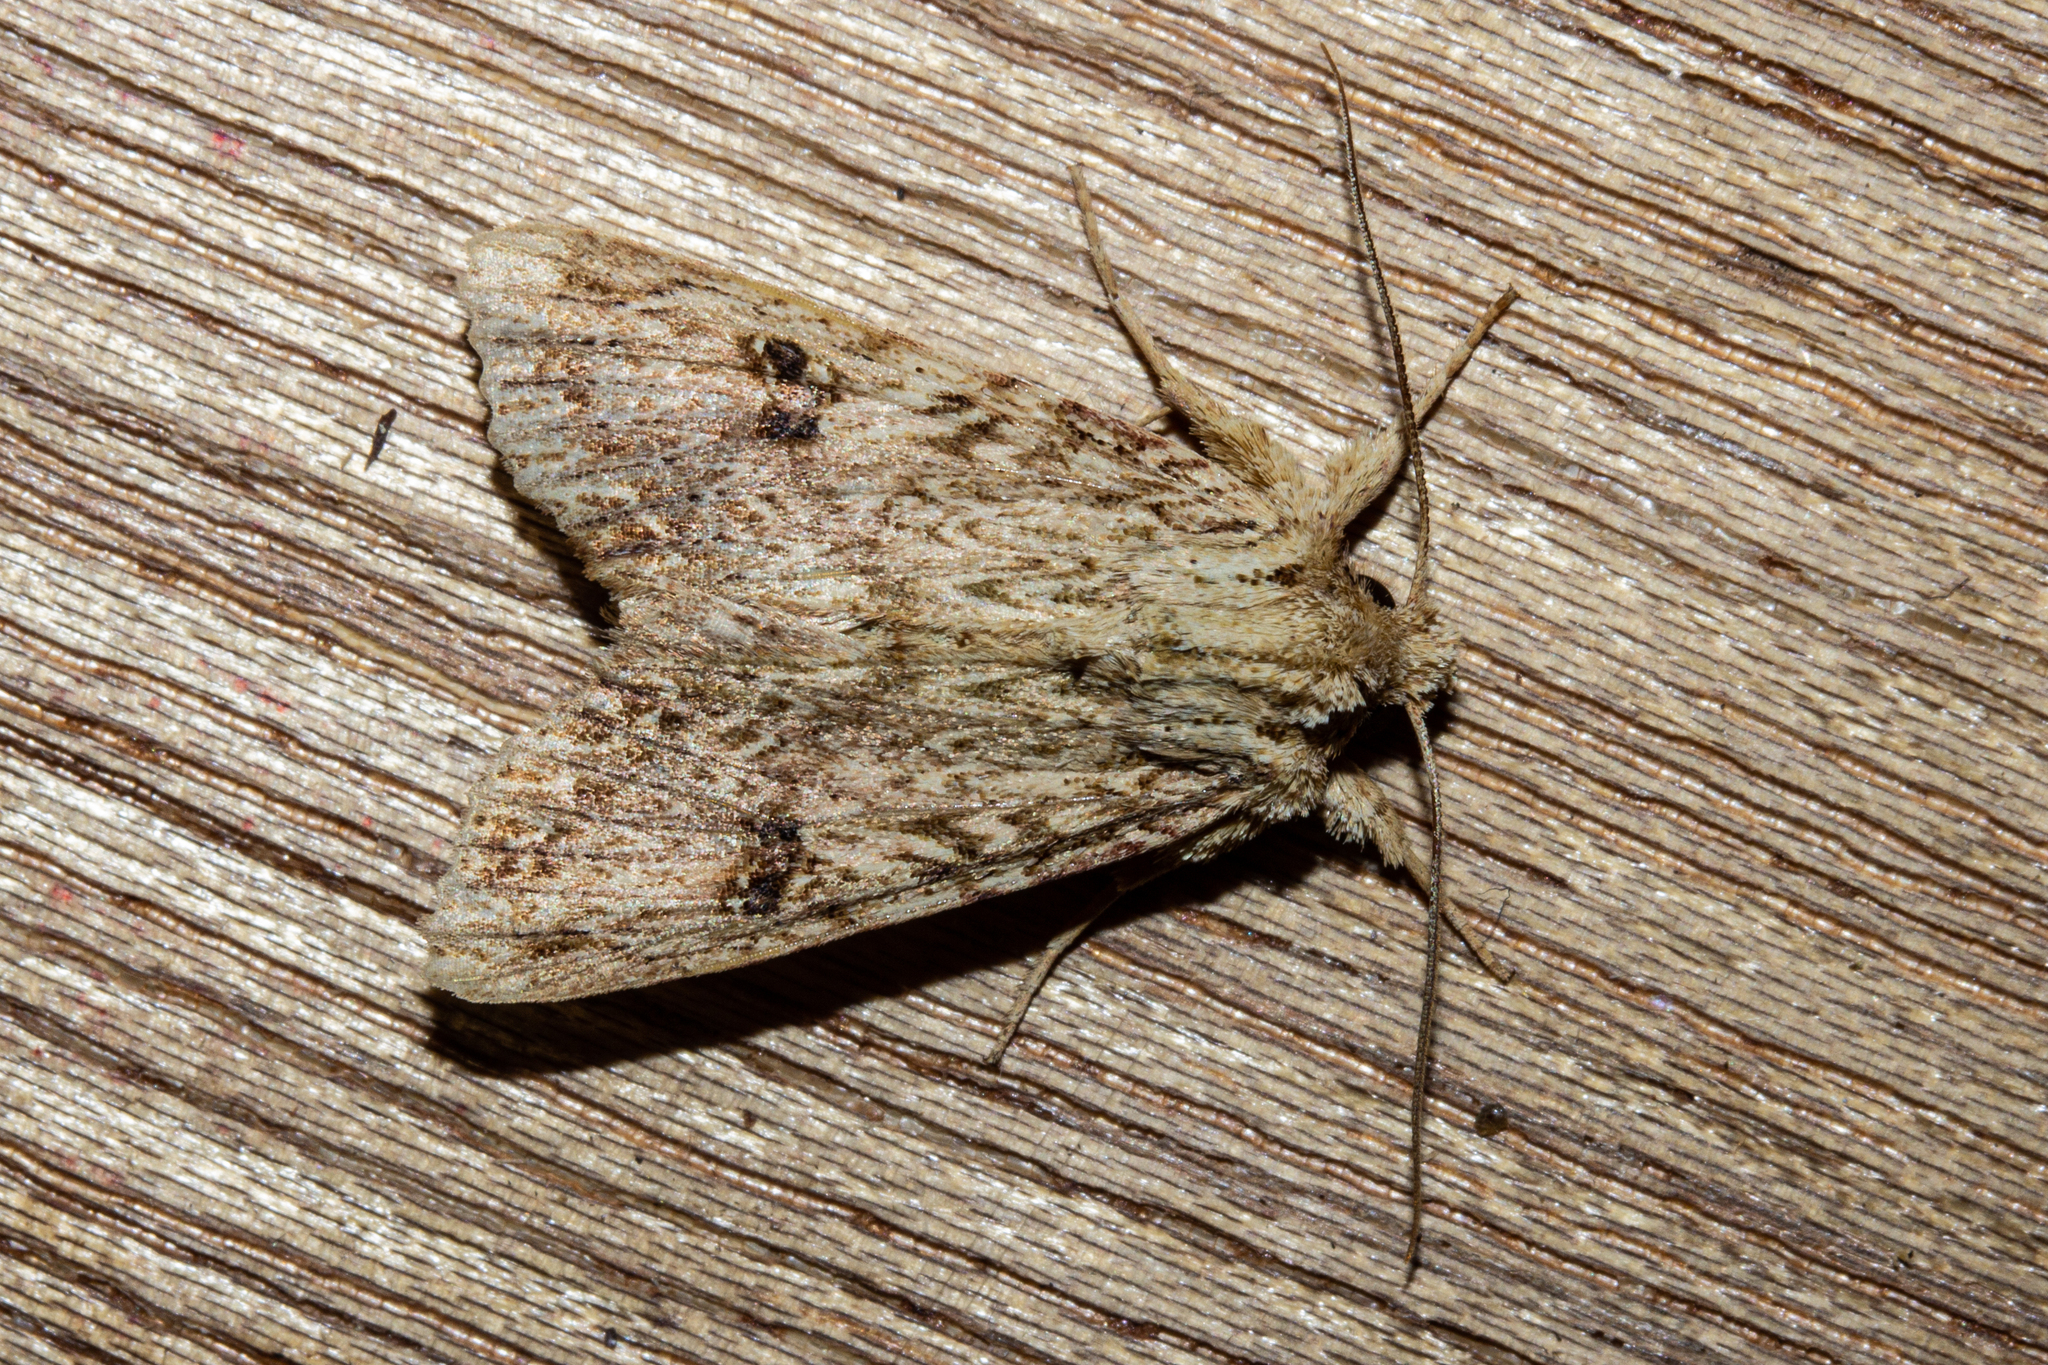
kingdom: Animalia
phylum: Arthropoda
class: Insecta
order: Lepidoptera
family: Noctuidae
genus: Meterana
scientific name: Meterana pansicolor
